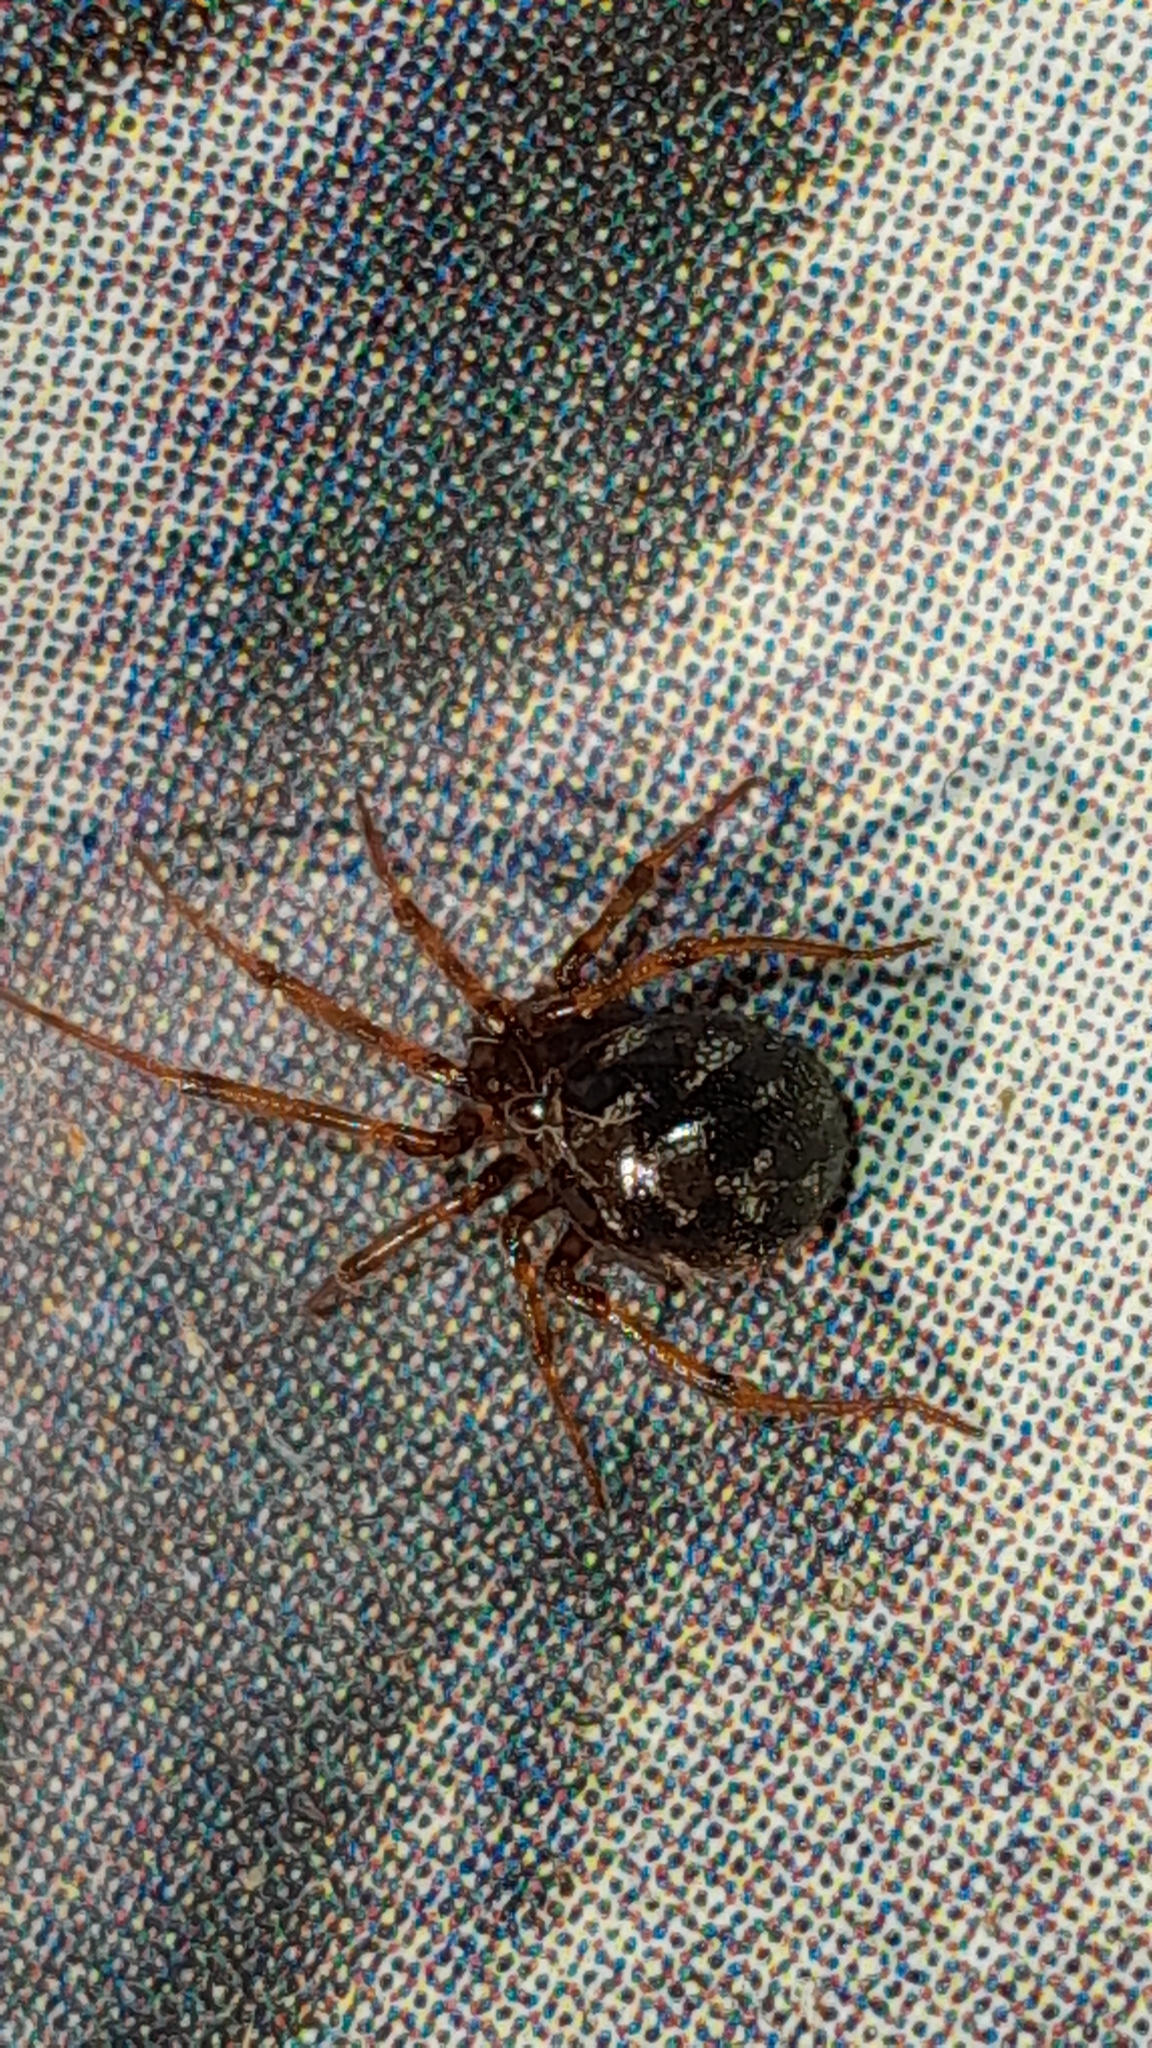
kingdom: Animalia
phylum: Arthropoda
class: Arachnida
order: Araneae
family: Theridiidae
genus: Steatoda
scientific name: Steatoda triangulosa
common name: Triangulate bud spider
